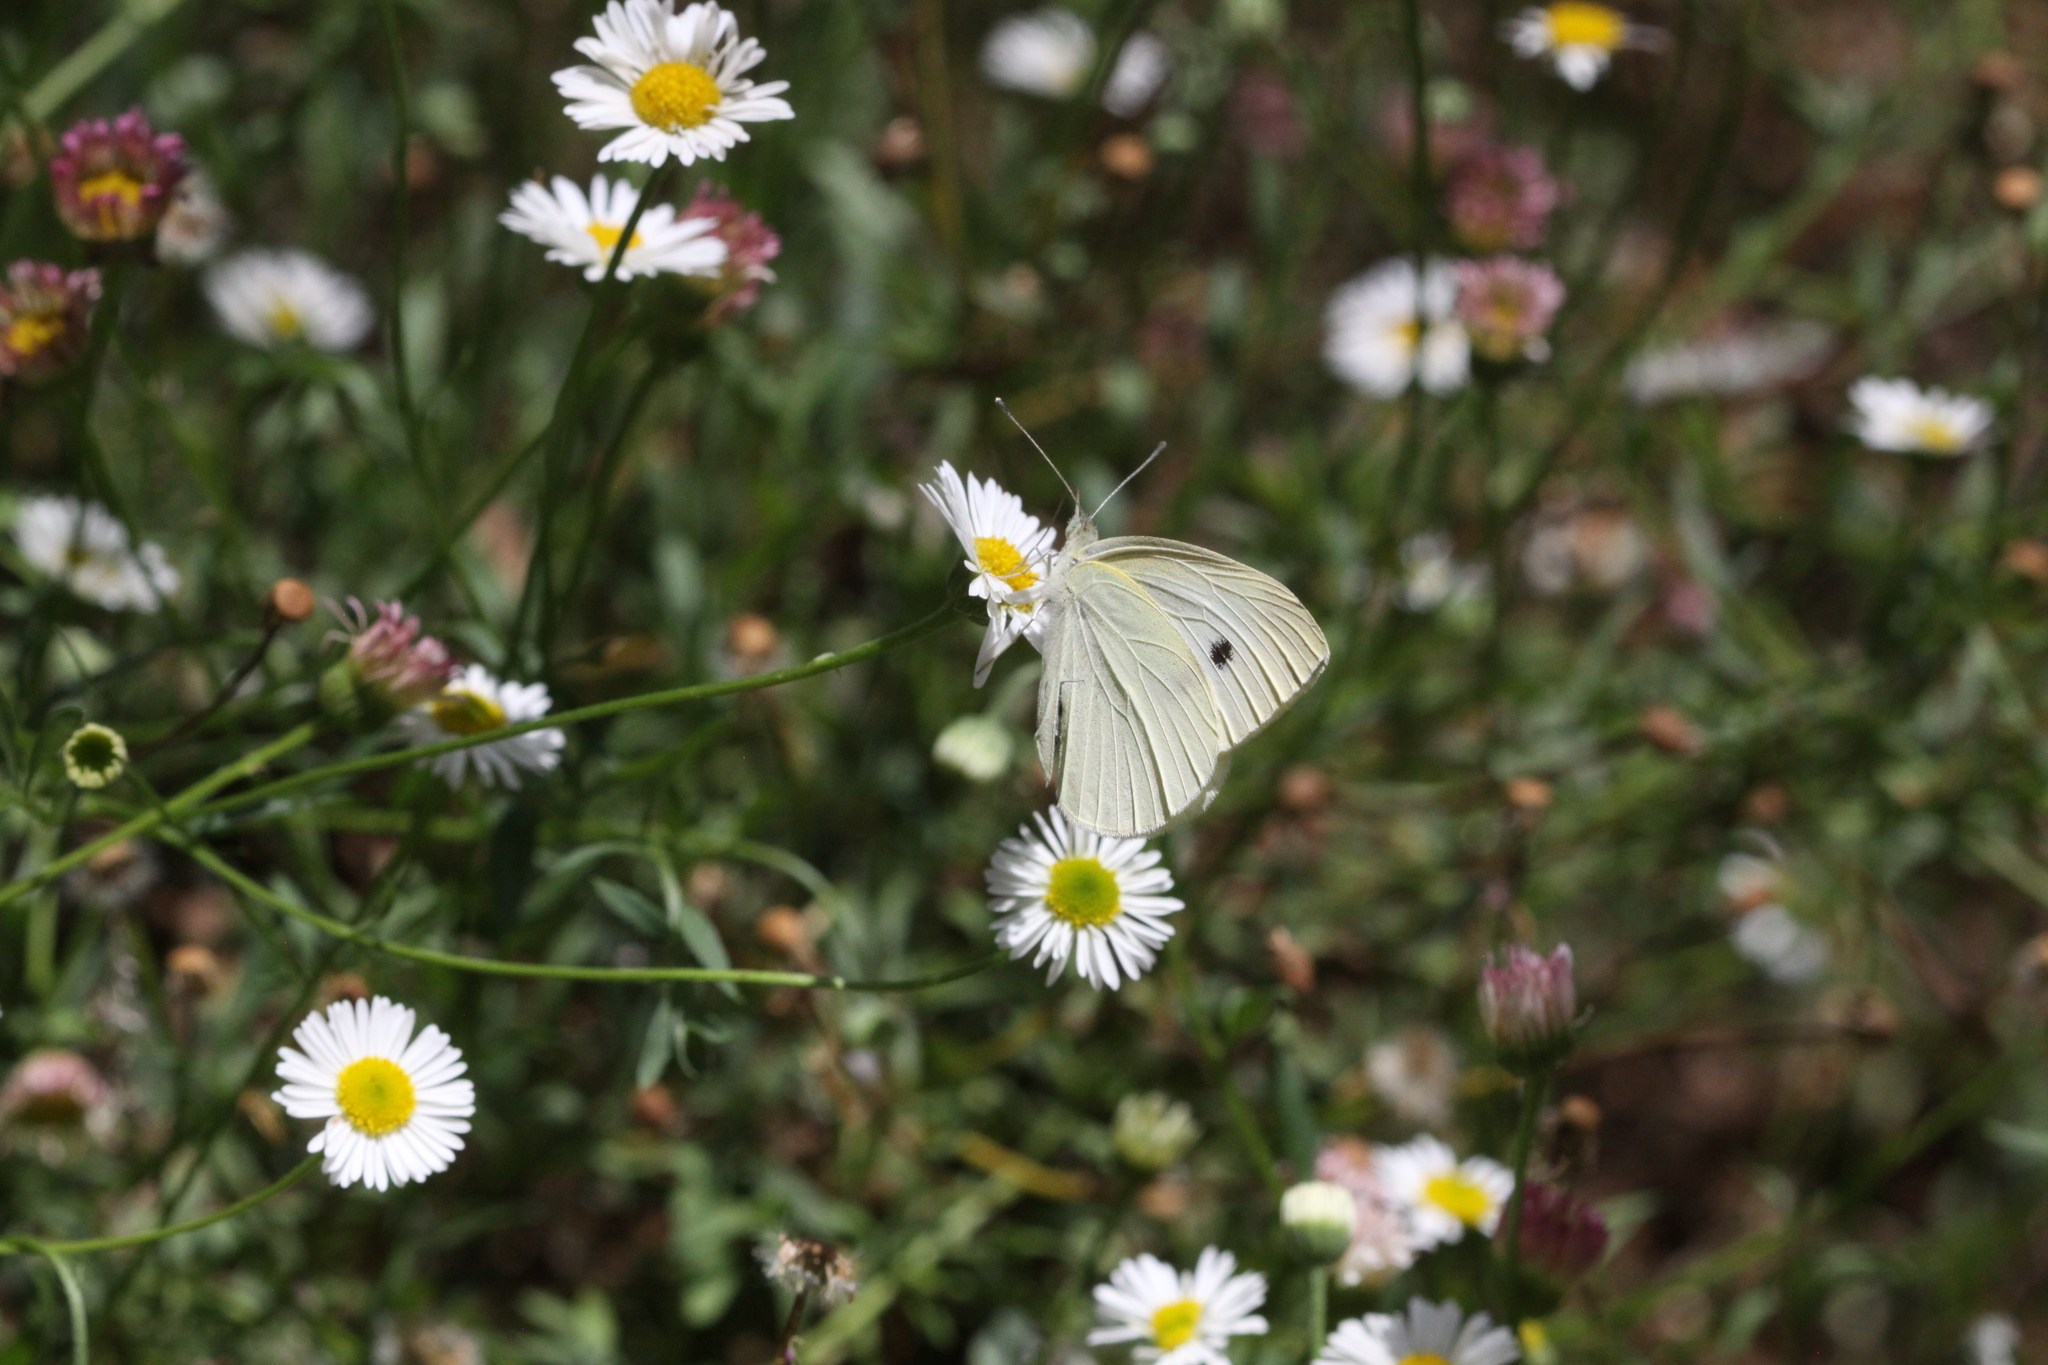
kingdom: Animalia
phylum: Arthropoda
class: Insecta
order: Lepidoptera
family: Pieridae
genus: Pieris
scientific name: Pieris rapae
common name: Small white
